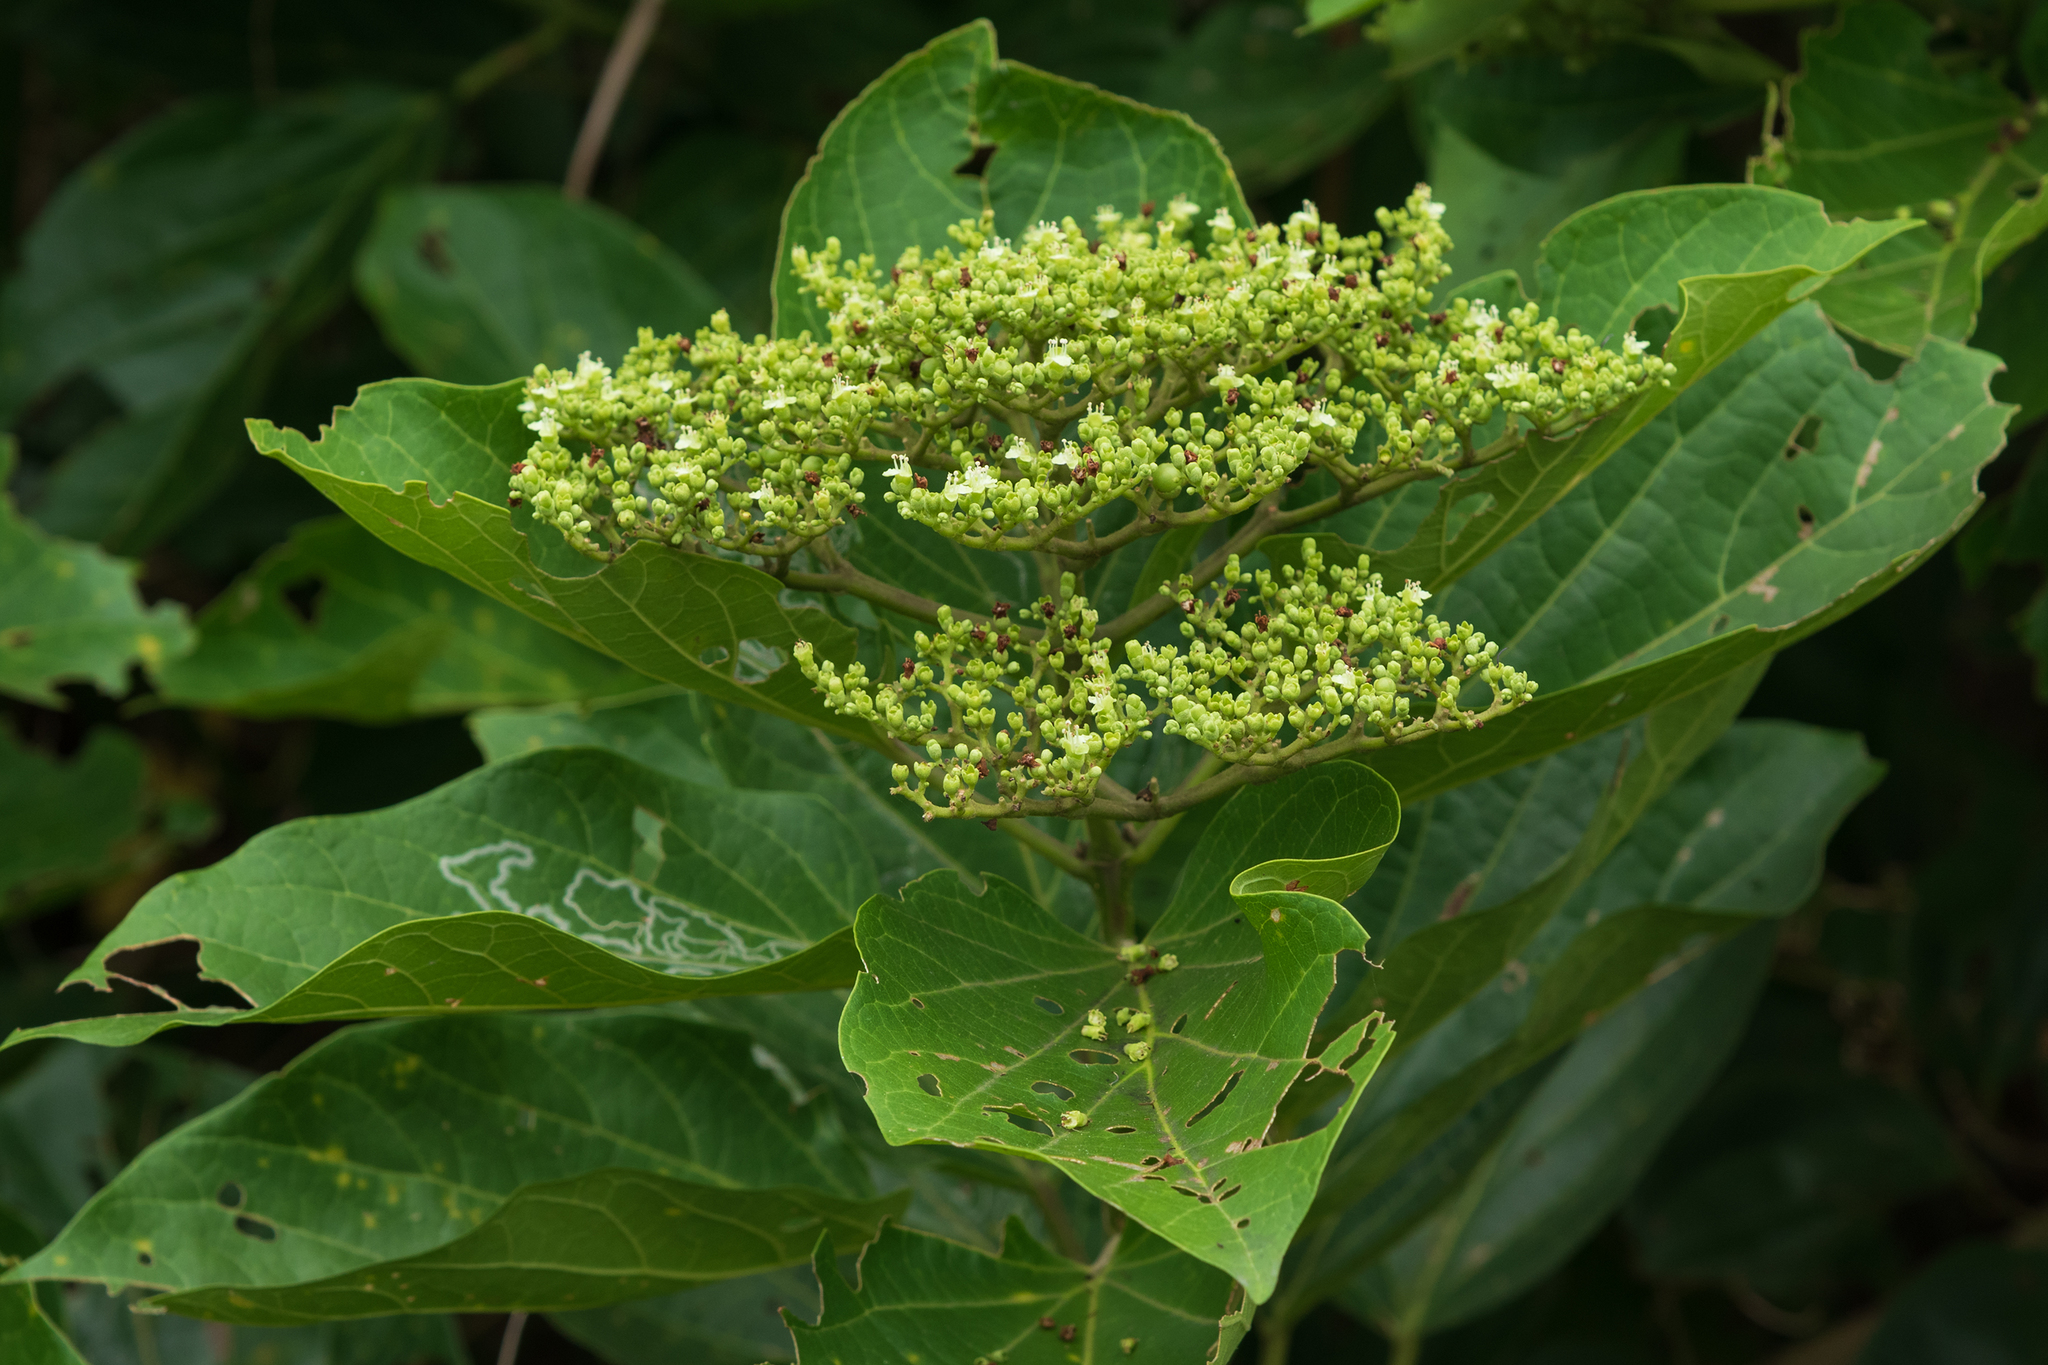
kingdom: Plantae
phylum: Tracheophyta
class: Magnoliopsida
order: Lamiales
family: Lamiaceae
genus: Premna
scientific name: Premna serratifolia
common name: Bastard guelder
